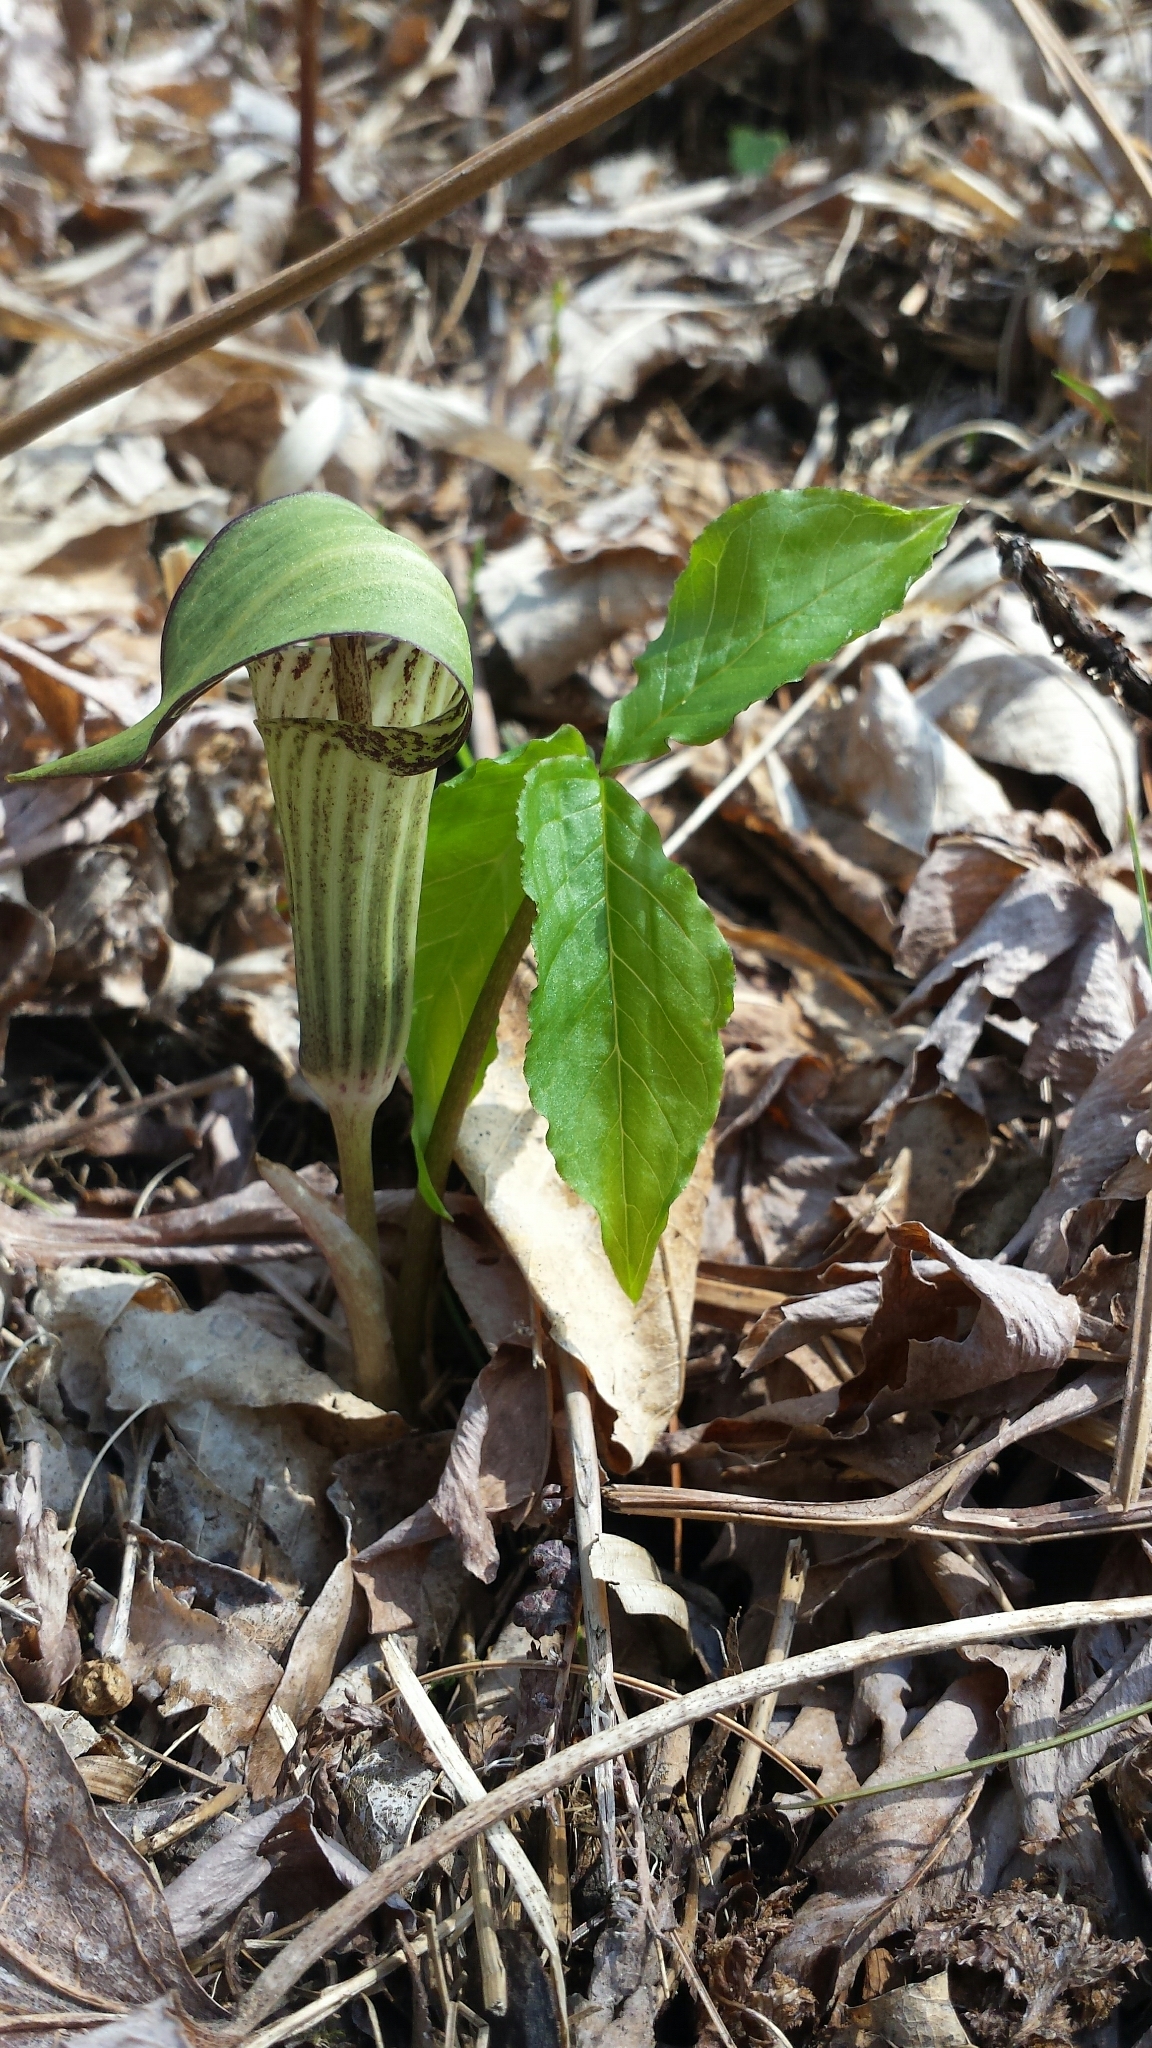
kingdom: Plantae
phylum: Tracheophyta
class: Liliopsida
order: Alismatales
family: Araceae
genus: Arisaema
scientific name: Arisaema triphyllum
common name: Jack-in-the-pulpit
